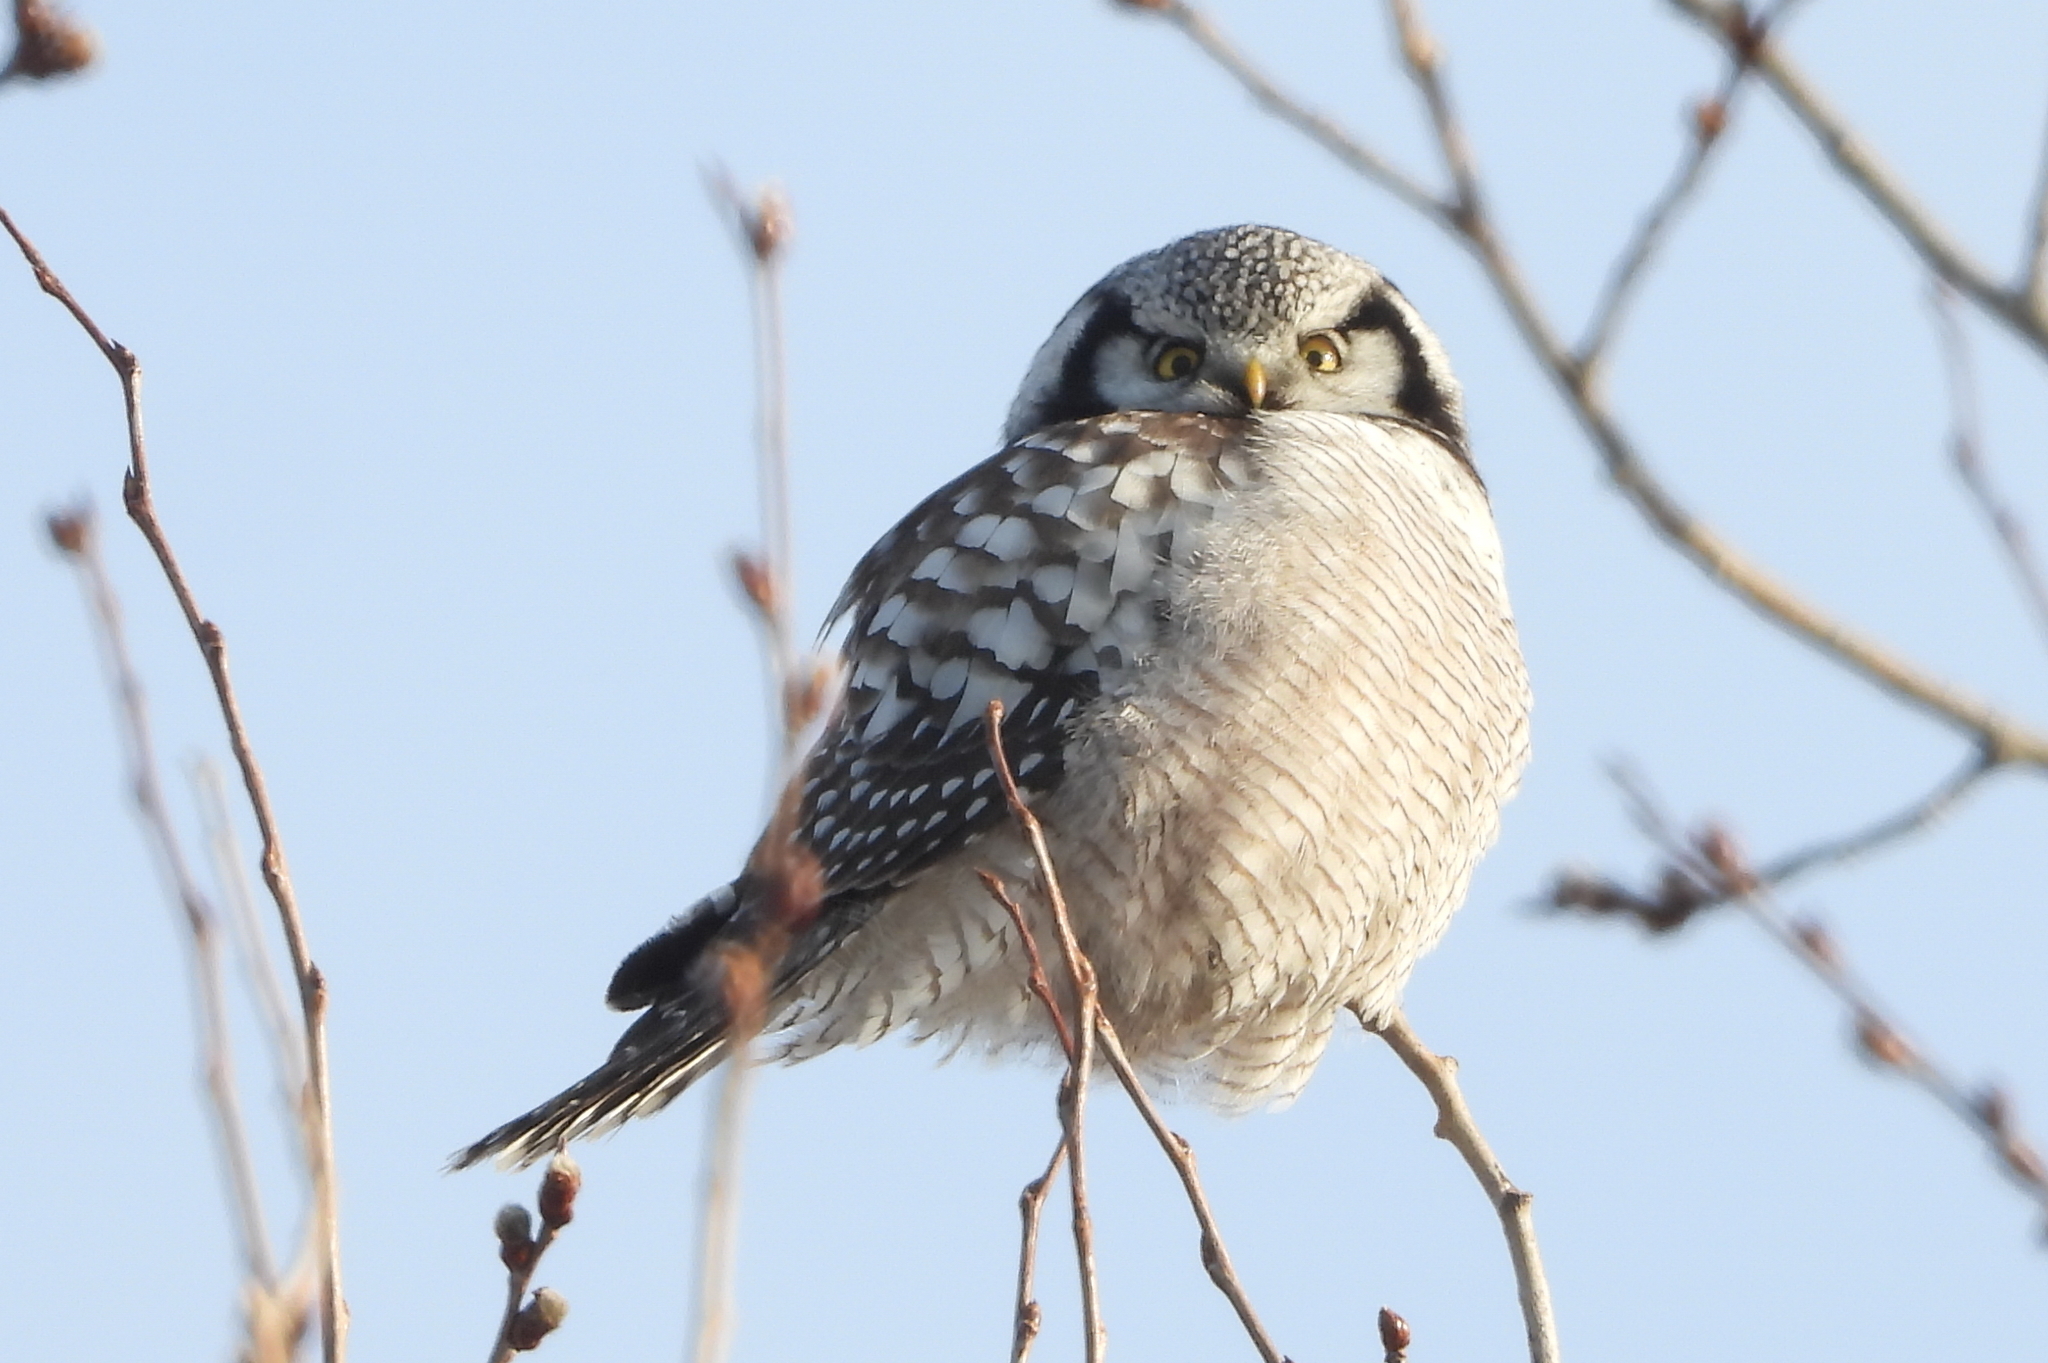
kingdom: Animalia
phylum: Chordata
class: Aves
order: Strigiformes
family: Strigidae
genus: Surnia
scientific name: Surnia ulula
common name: Northern hawk-owl
